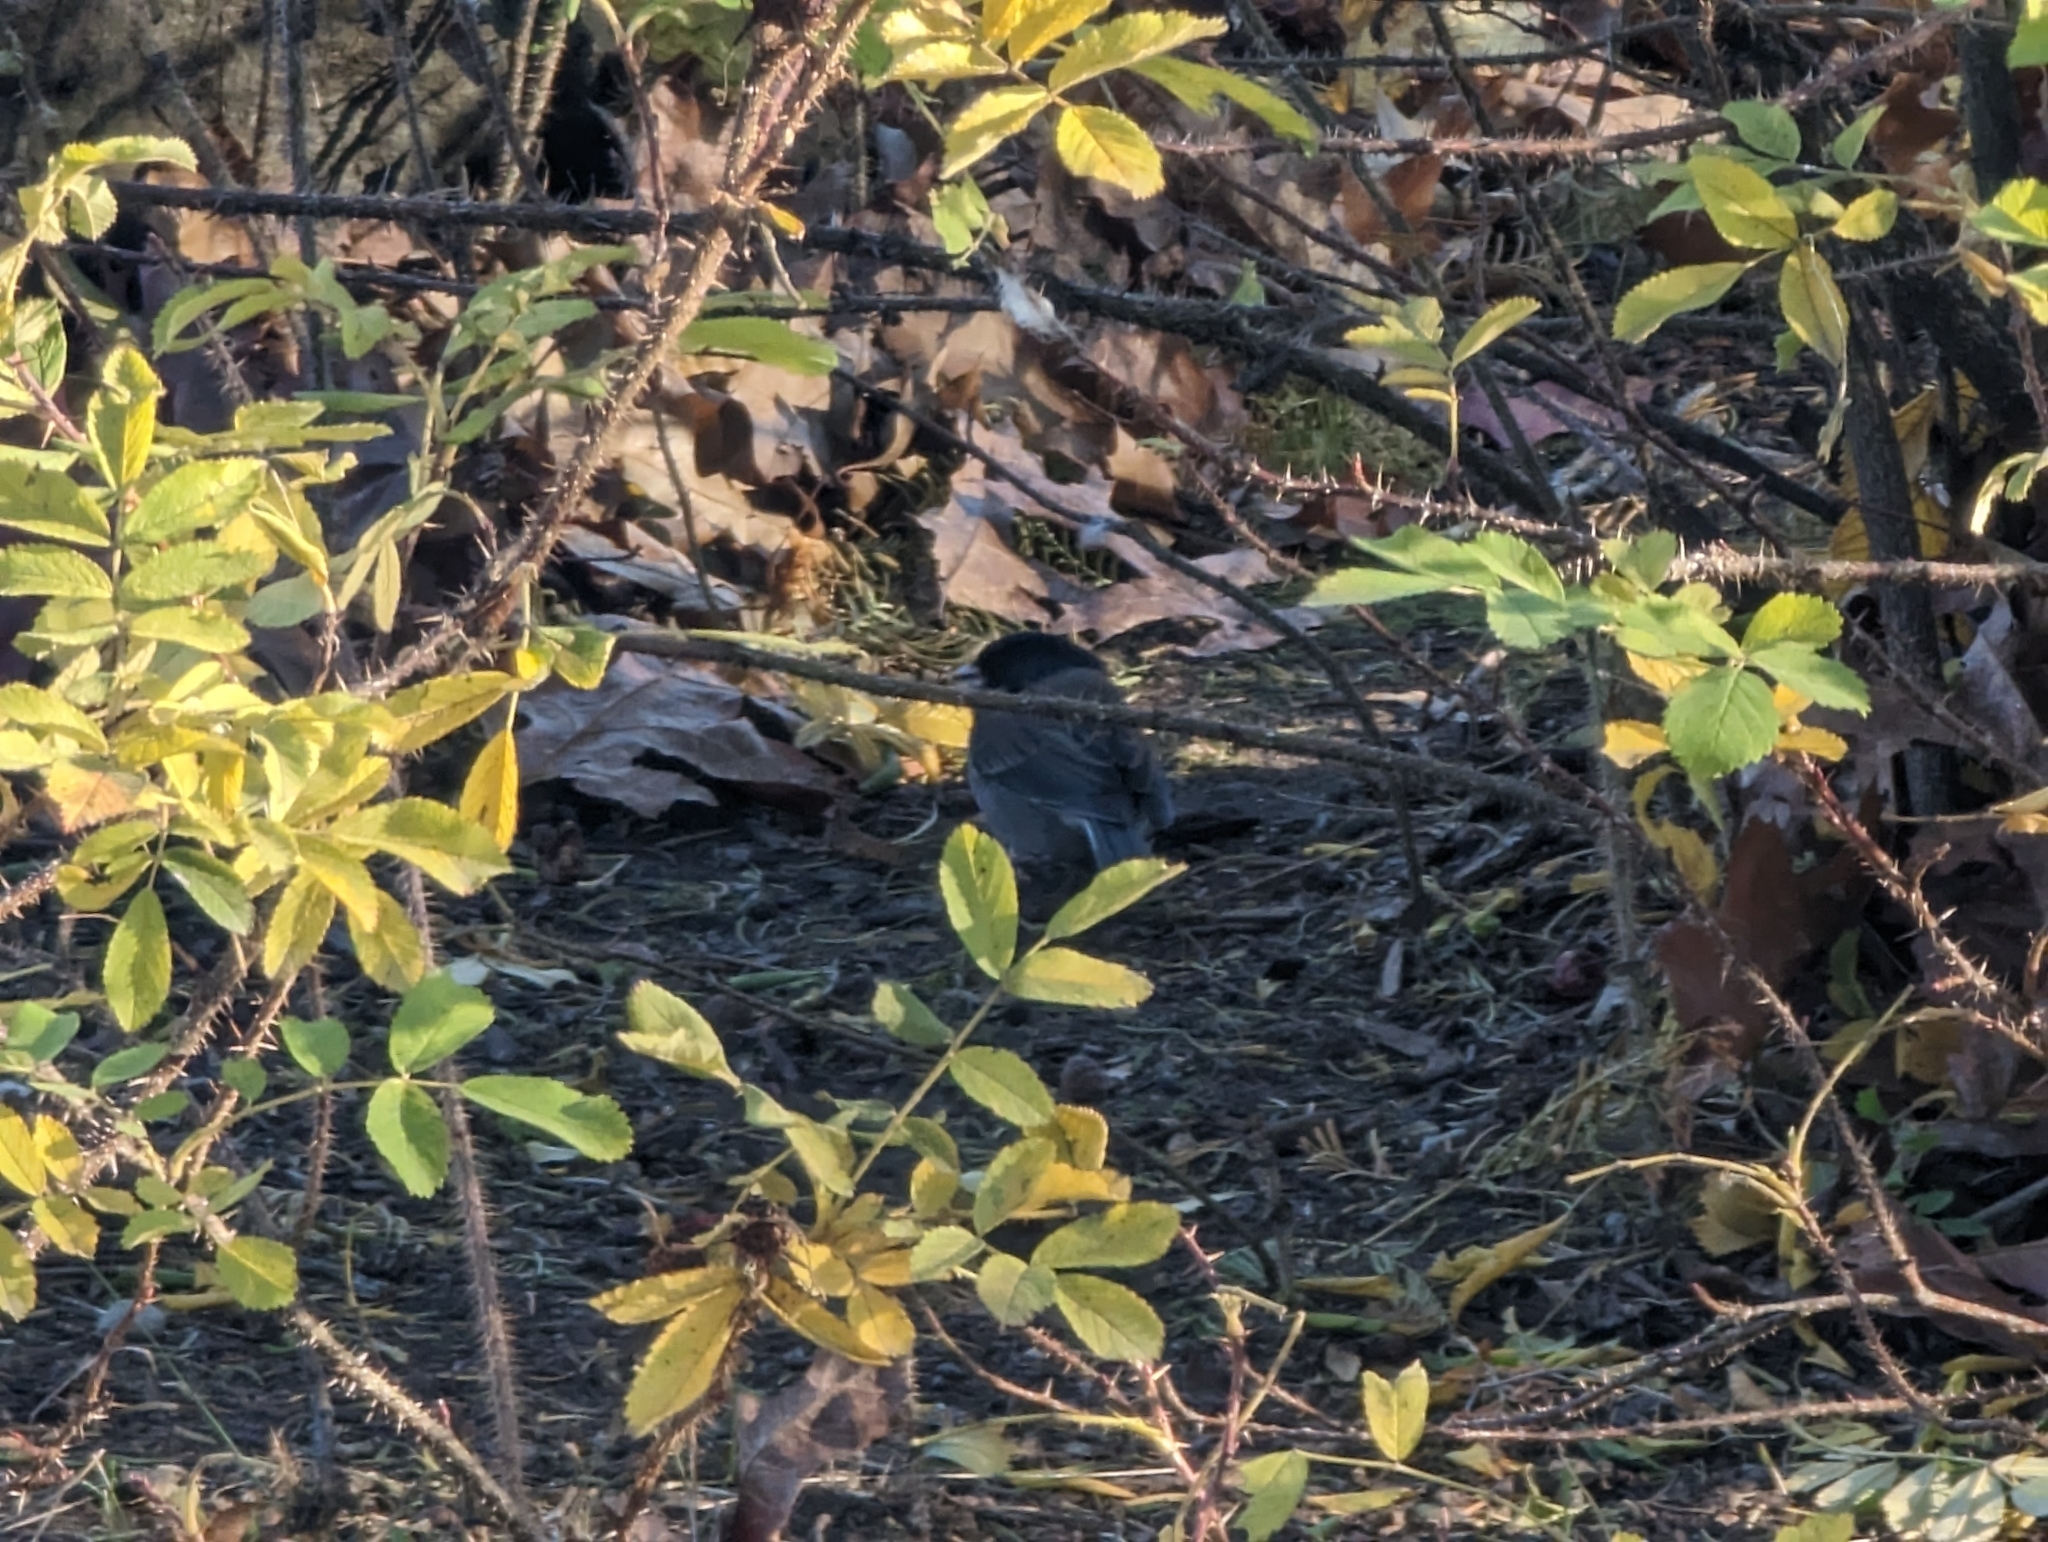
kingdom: Animalia
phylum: Chordata
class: Aves
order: Passeriformes
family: Passerellidae
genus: Junco
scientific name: Junco hyemalis
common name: Dark-eyed junco
